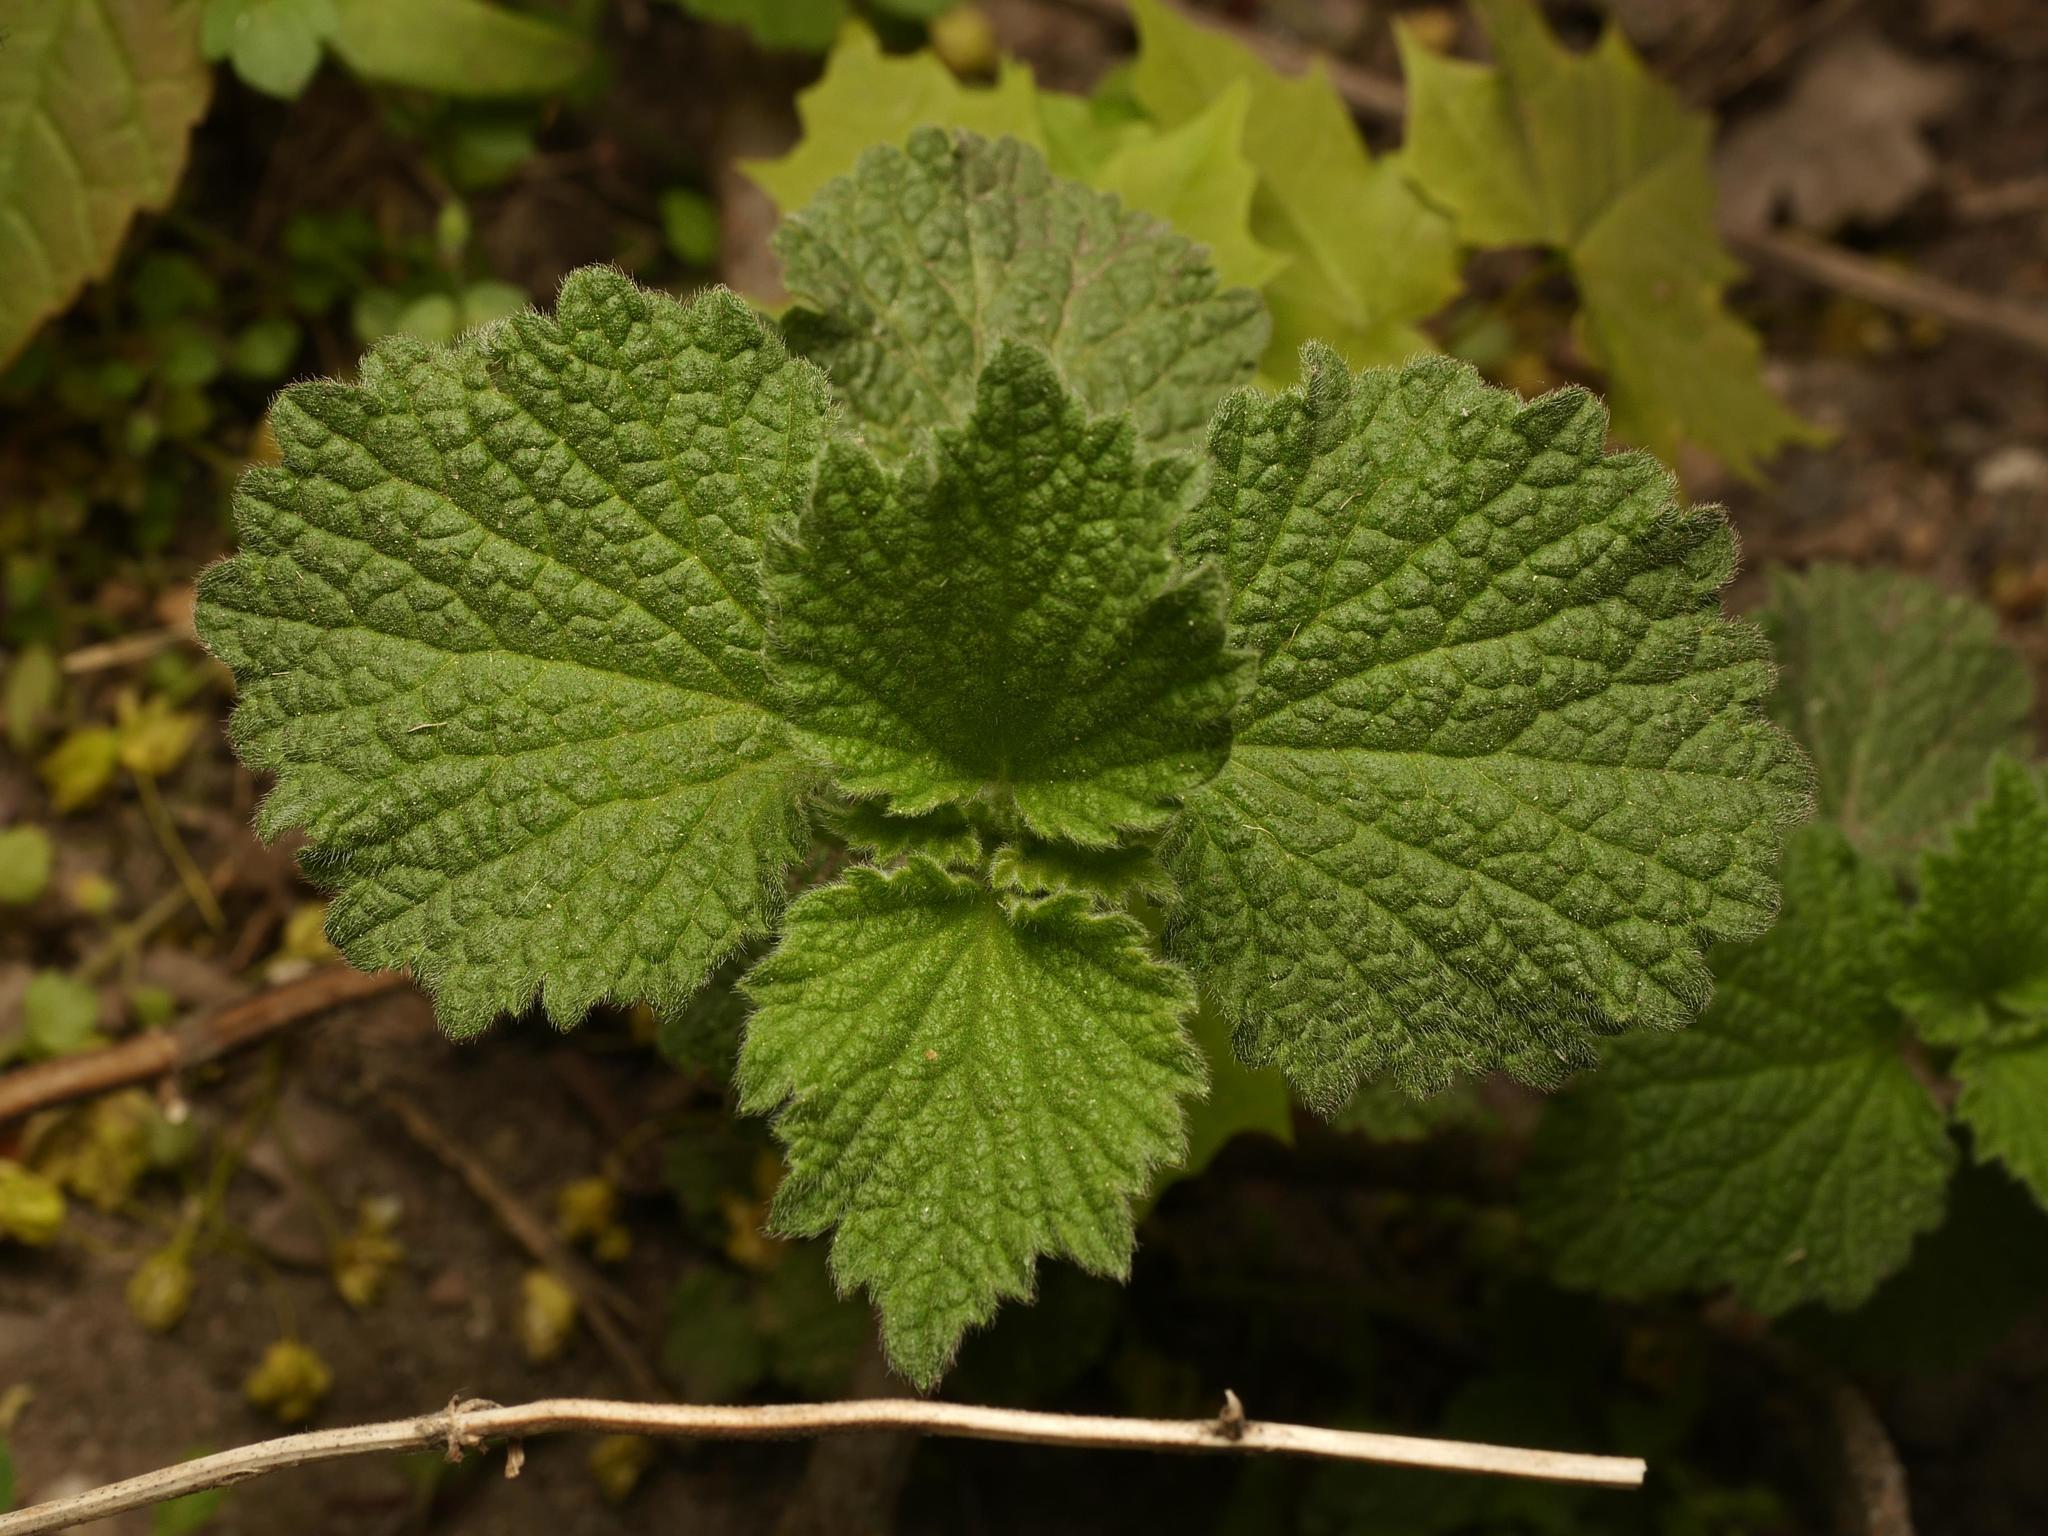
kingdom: Plantae
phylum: Tracheophyta
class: Magnoliopsida
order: Lamiales
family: Lamiaceae
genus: Ballota
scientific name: Ballota nigra
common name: Black horehound
